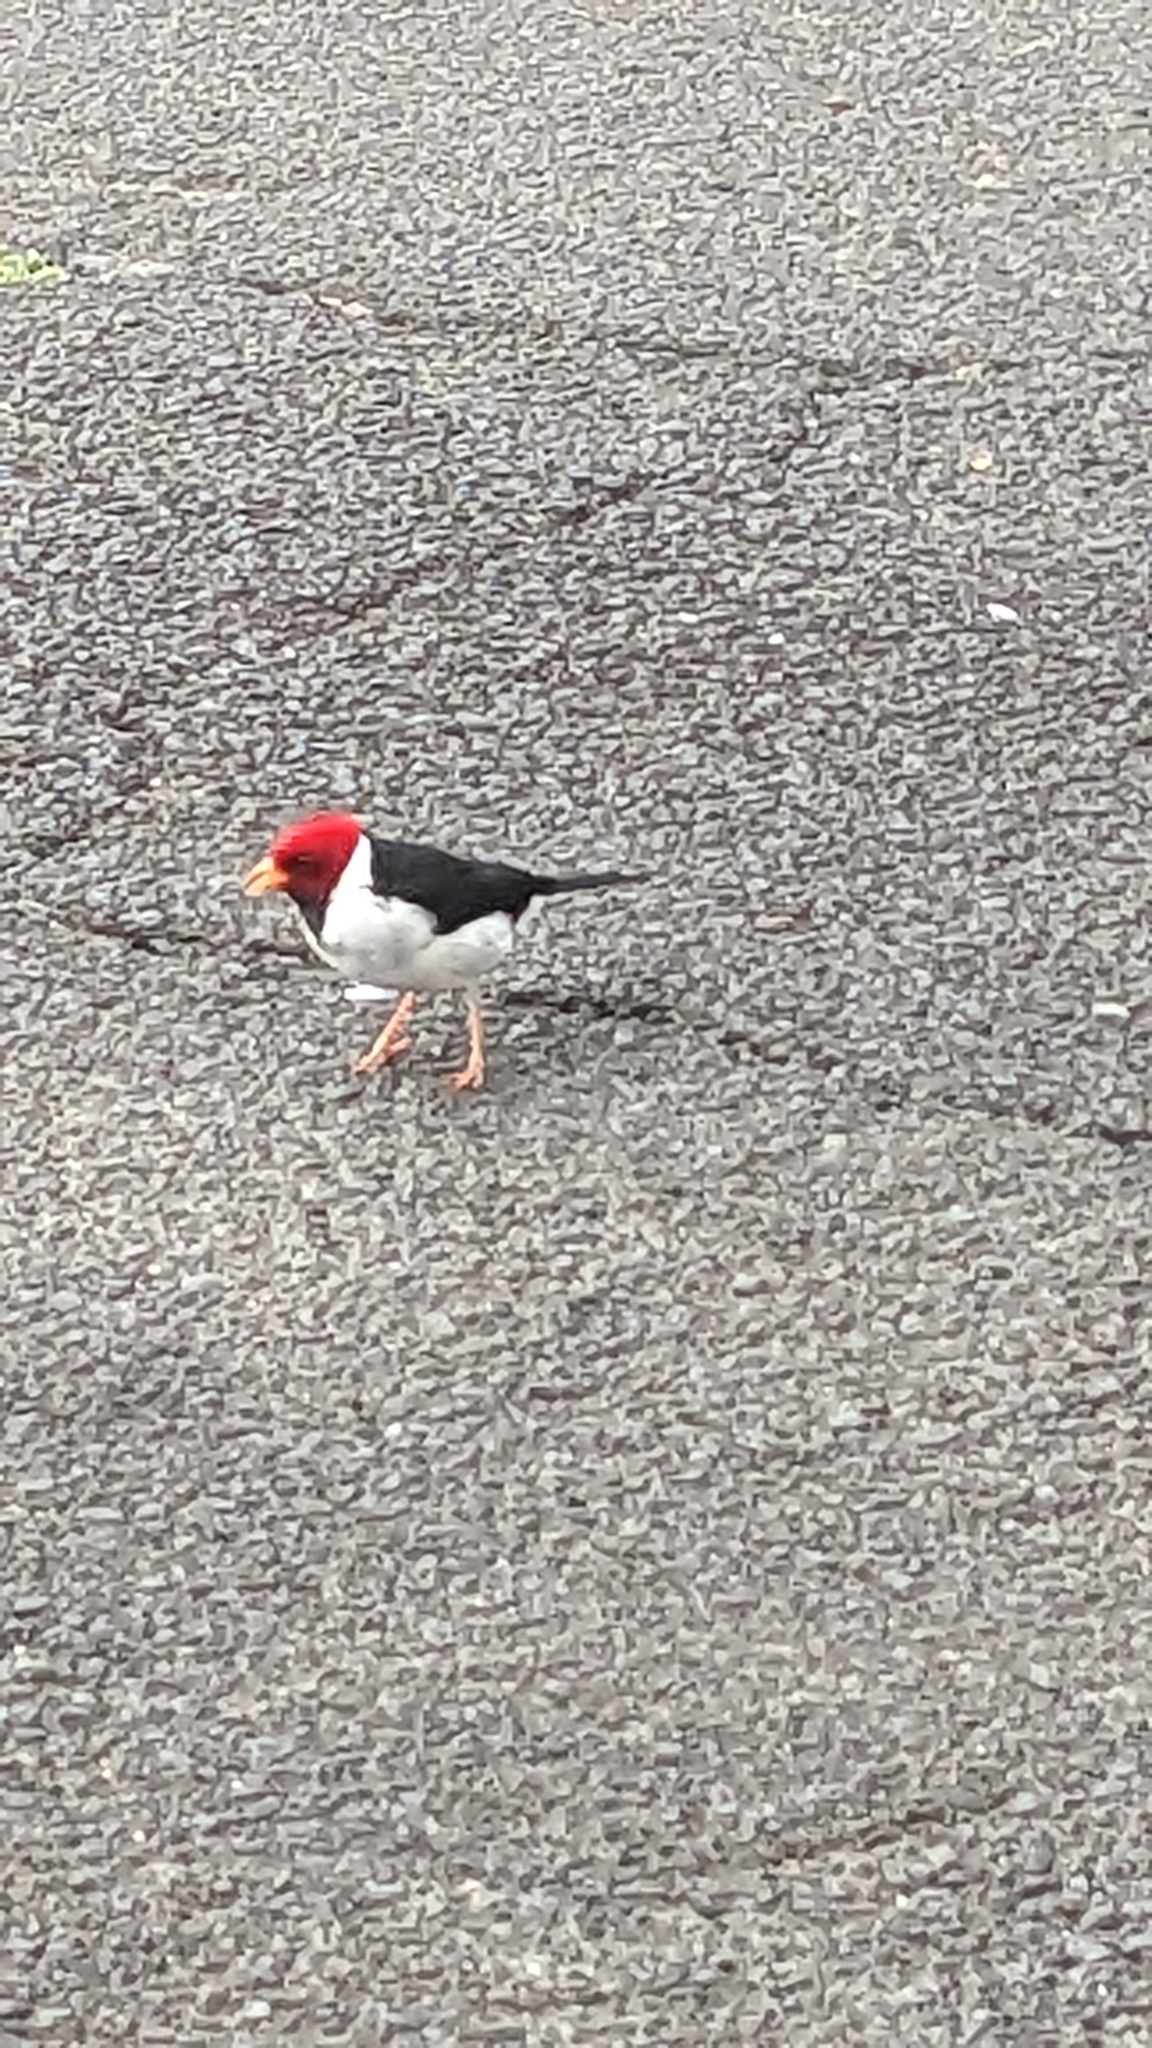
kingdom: Animalia
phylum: Chordata
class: Aves
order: Passeriformes
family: Thraupidae
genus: Paroaria
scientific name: Paroaria capitata
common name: Yellow-billed cardinal
